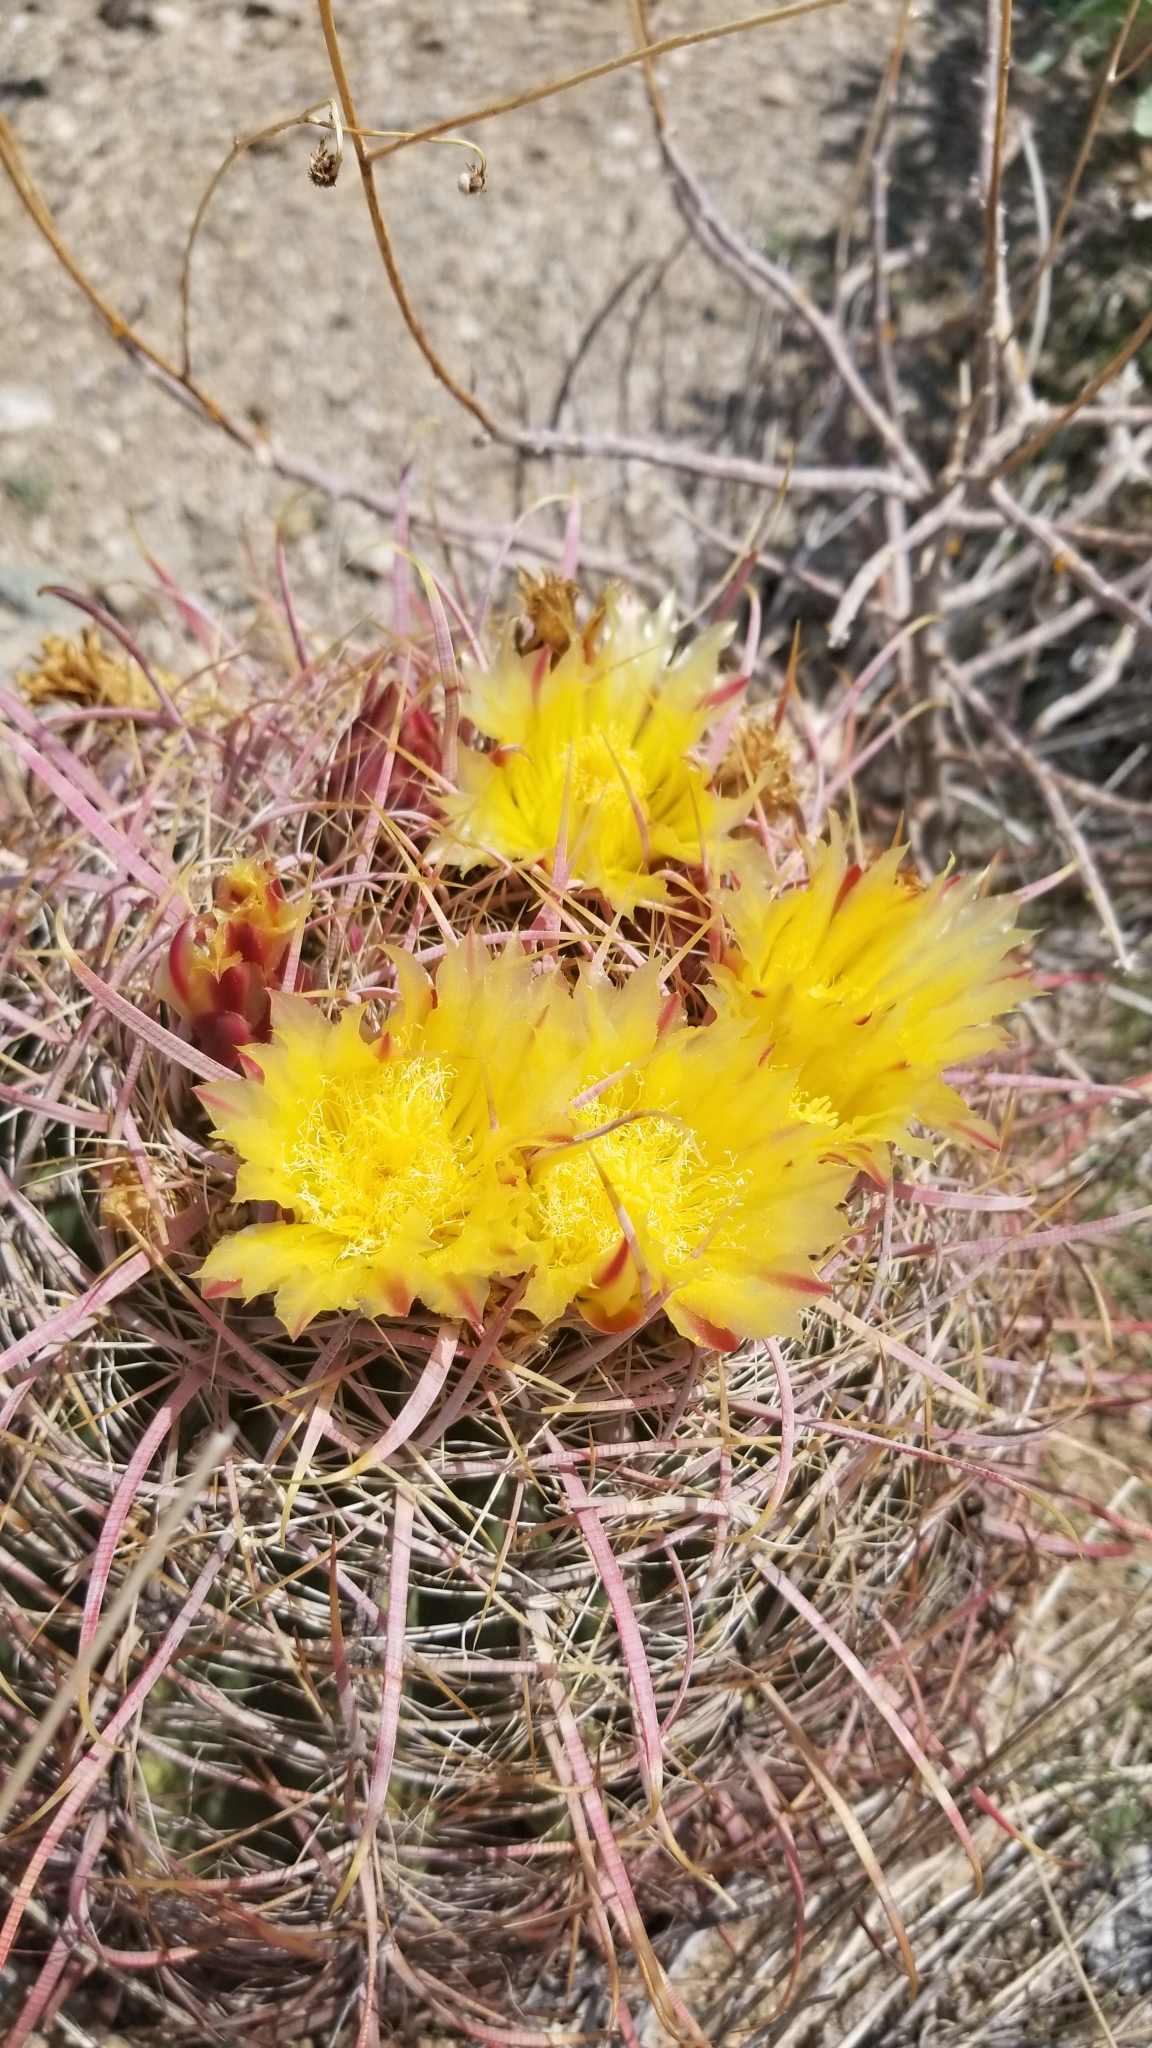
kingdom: Plantae
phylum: Tracheophyta
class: Magnoliopsida
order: Caryophyllales
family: Cactaceae
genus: Ferocactus
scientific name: Ferocactus cylindraceus
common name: California barrel cactus
